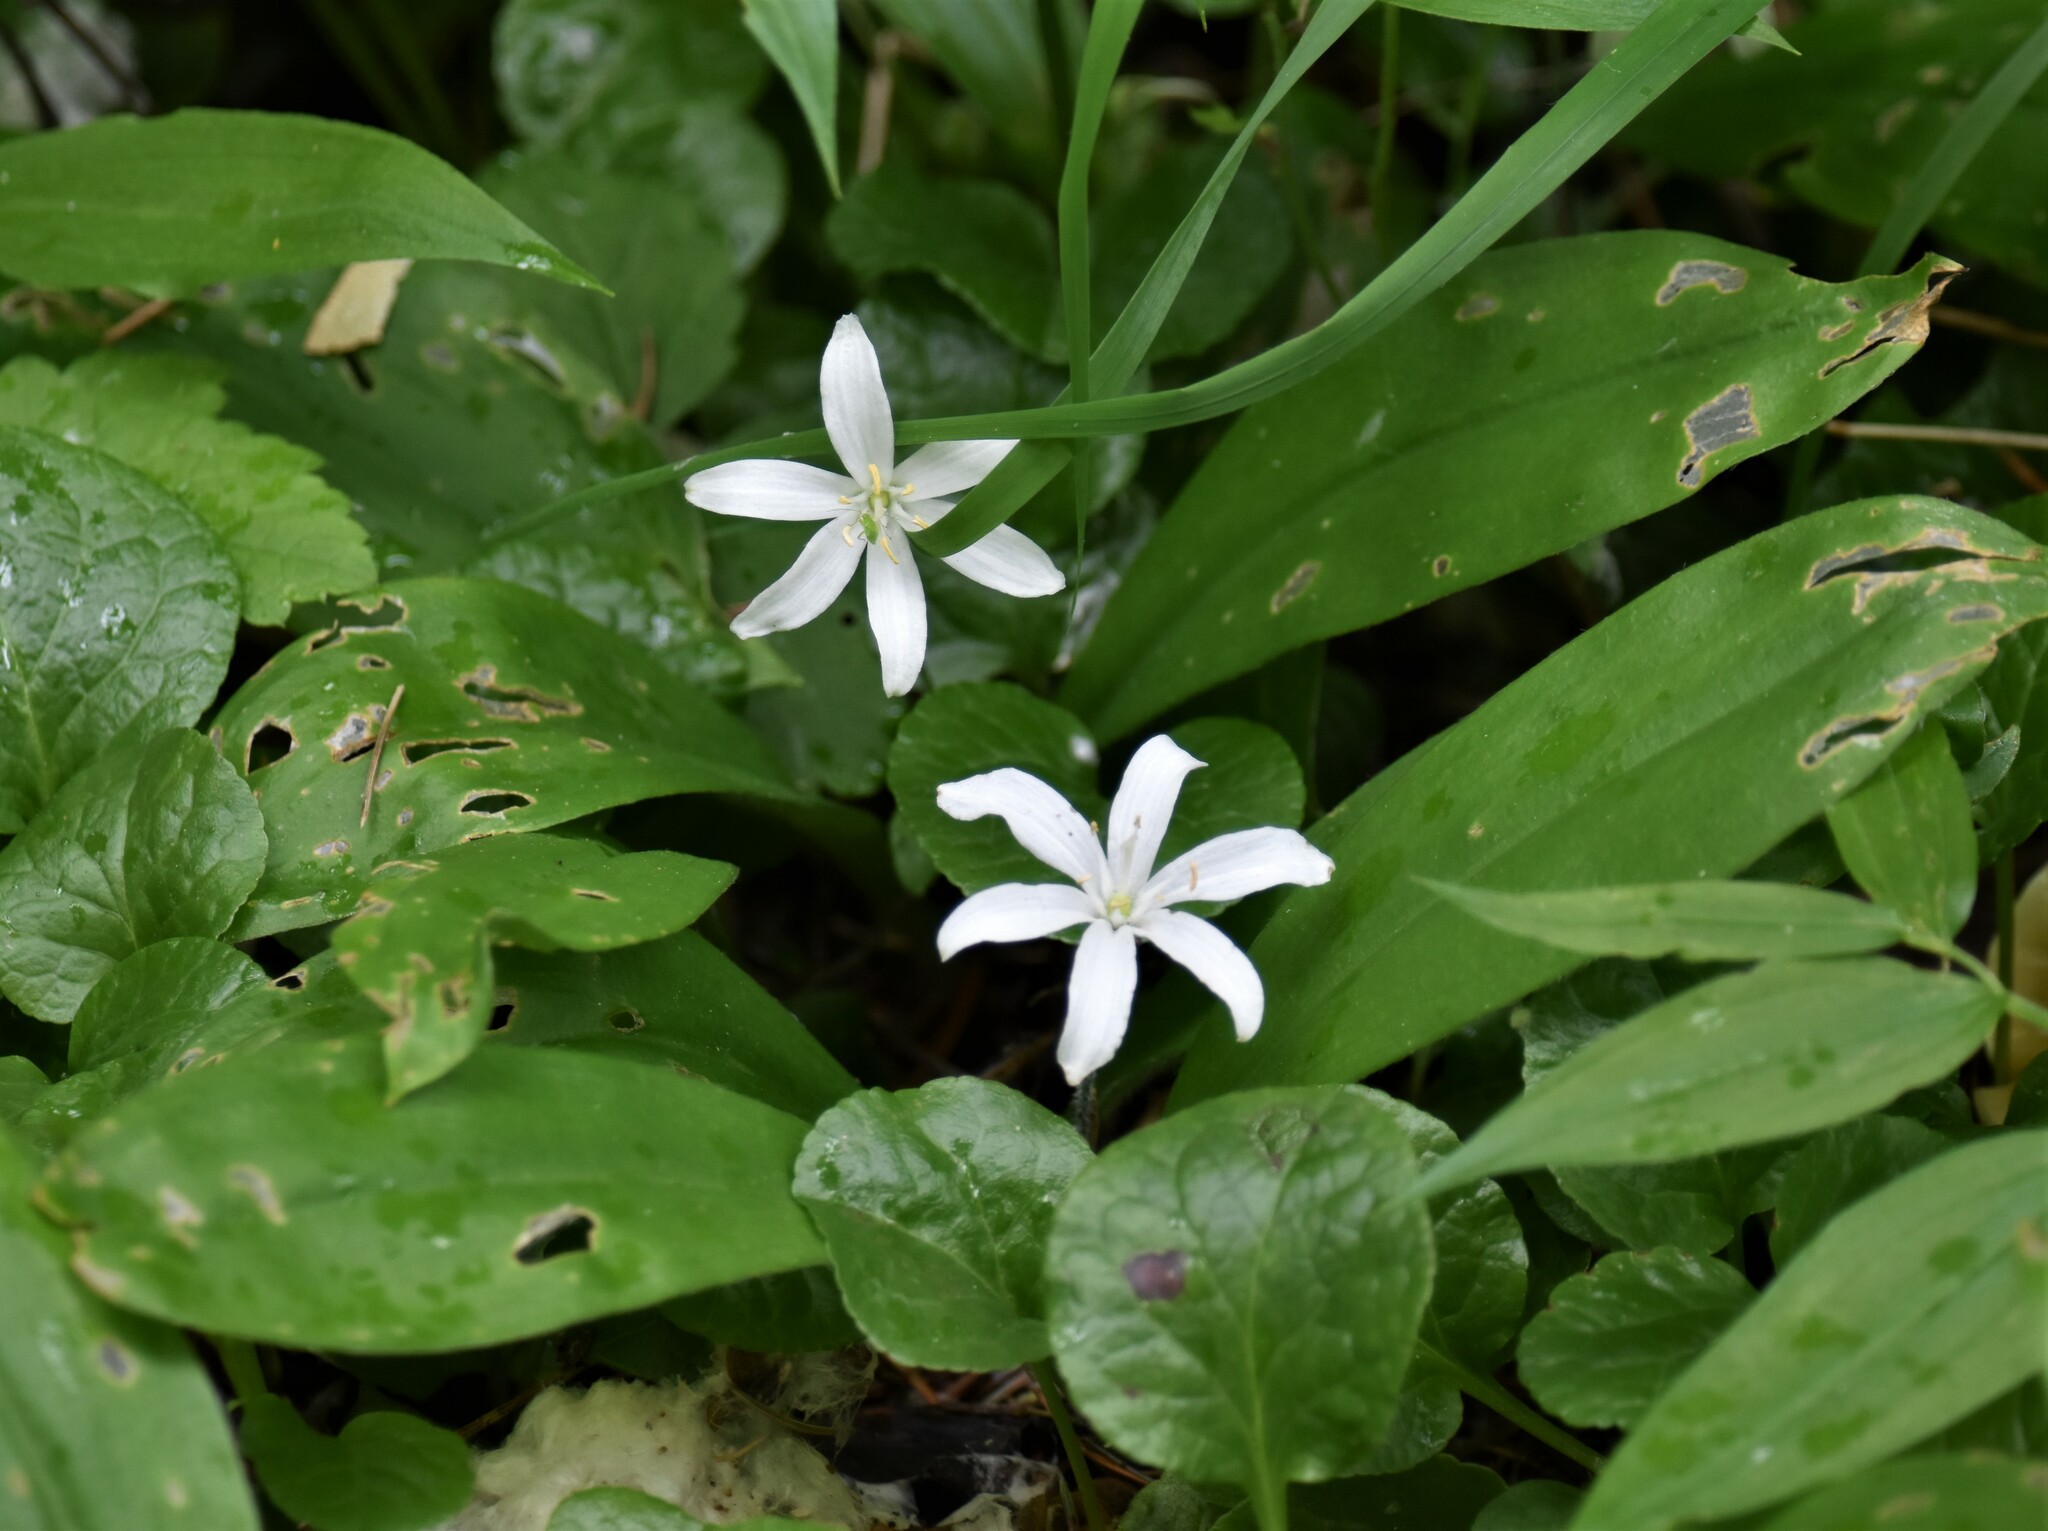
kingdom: Plantae
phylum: Tracheophyta
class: Liliopsida
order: Liliales
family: Liliaceae
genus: Clintonia
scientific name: Clintonia uniflora
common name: Queen's cup
